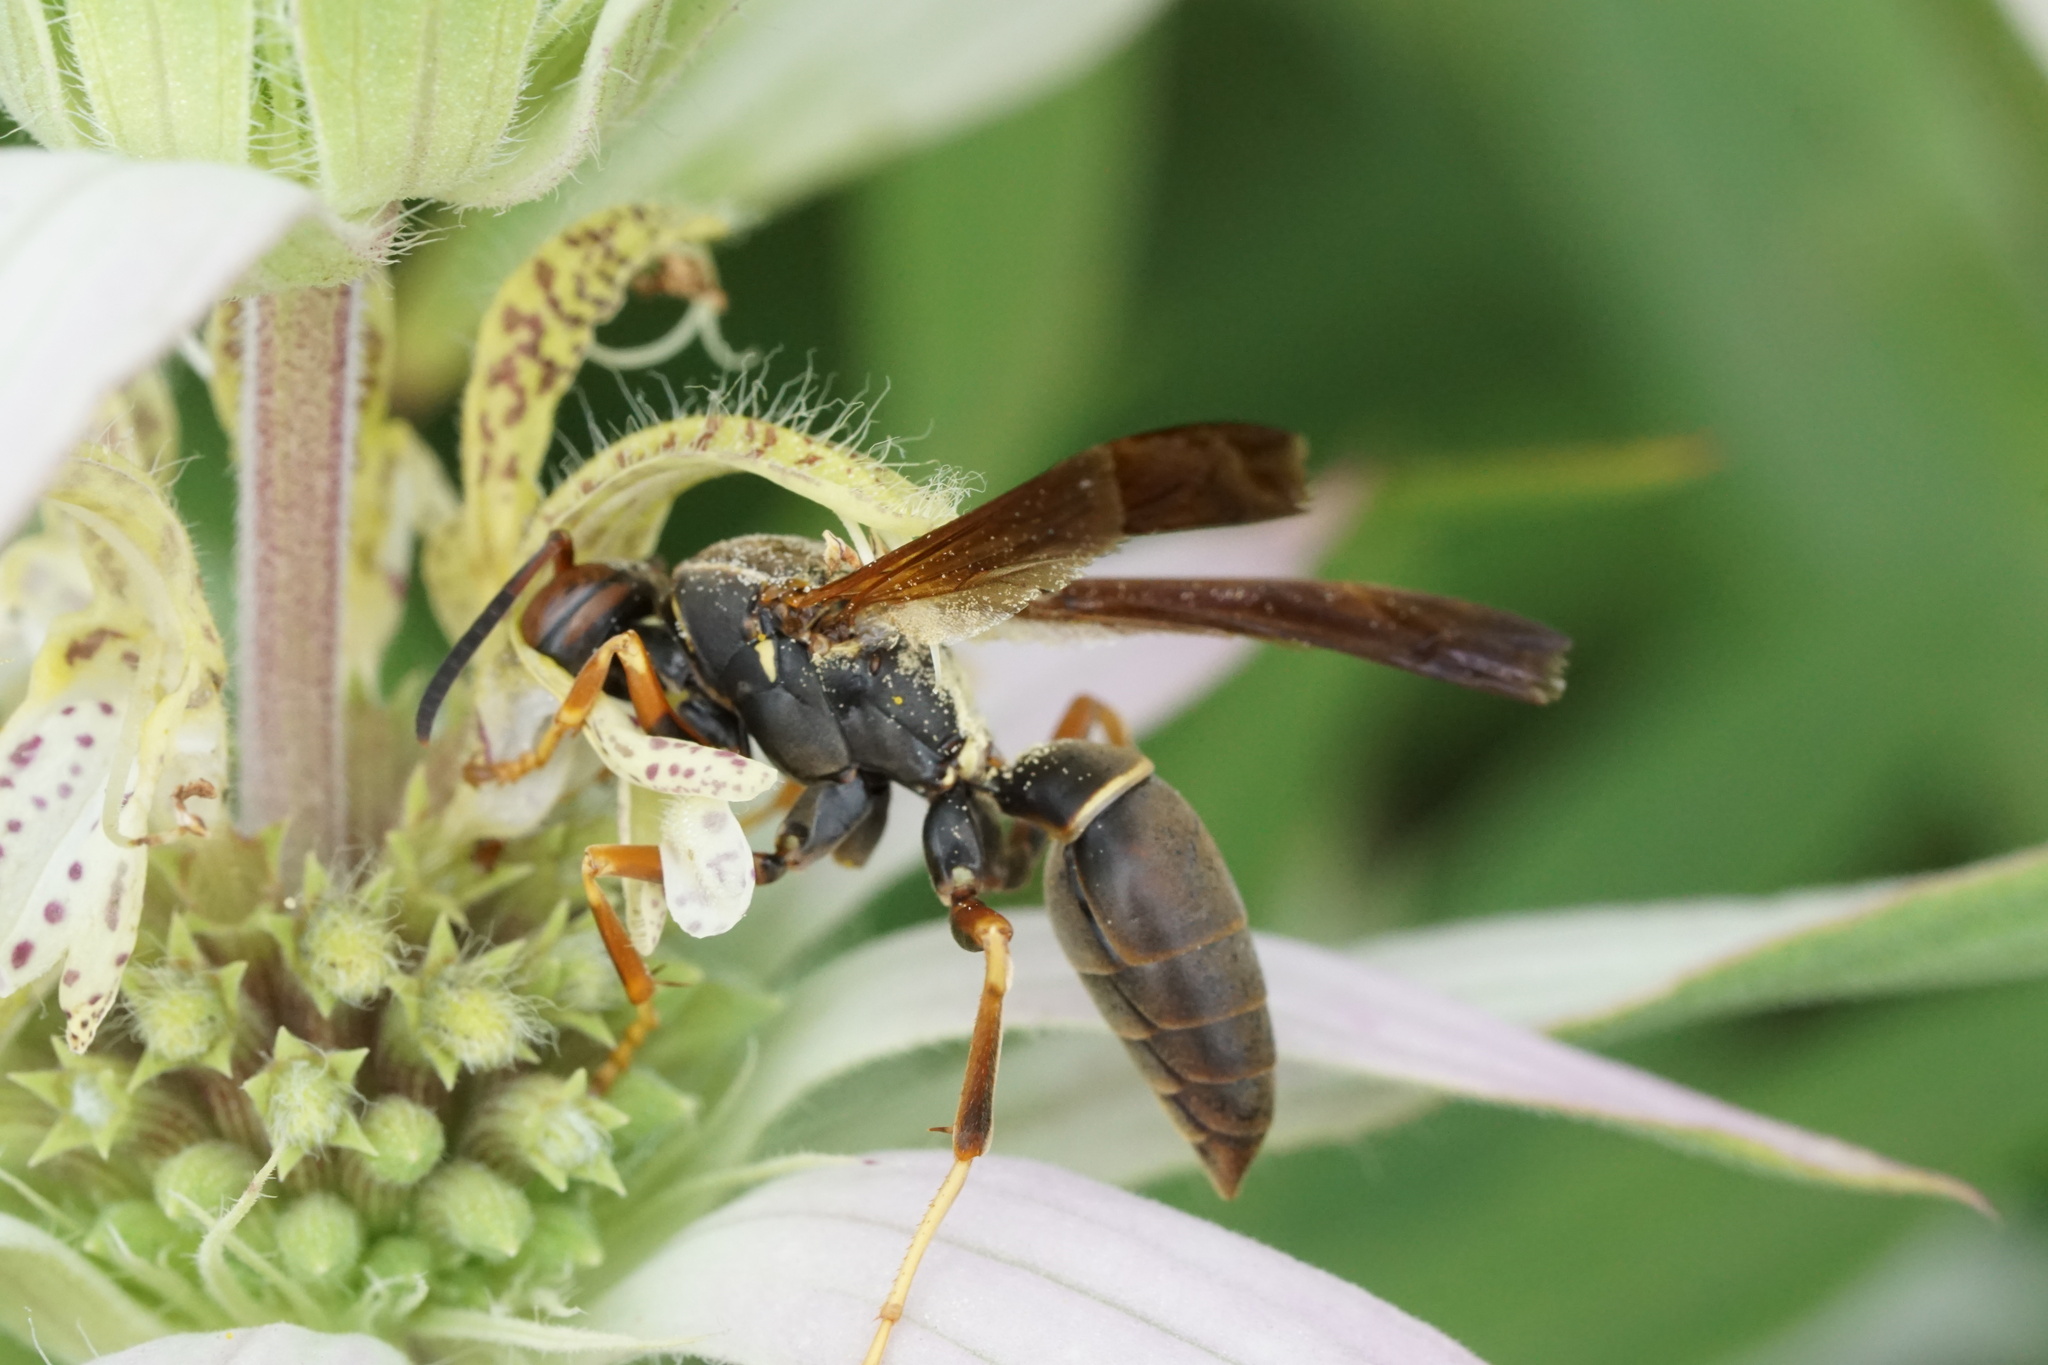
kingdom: Animalia
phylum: Arthropoda
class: Insecta
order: Hymenoptera
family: Eumenidae
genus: Polistes
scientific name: Polistes fuscatus
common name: Dark paper wasp
